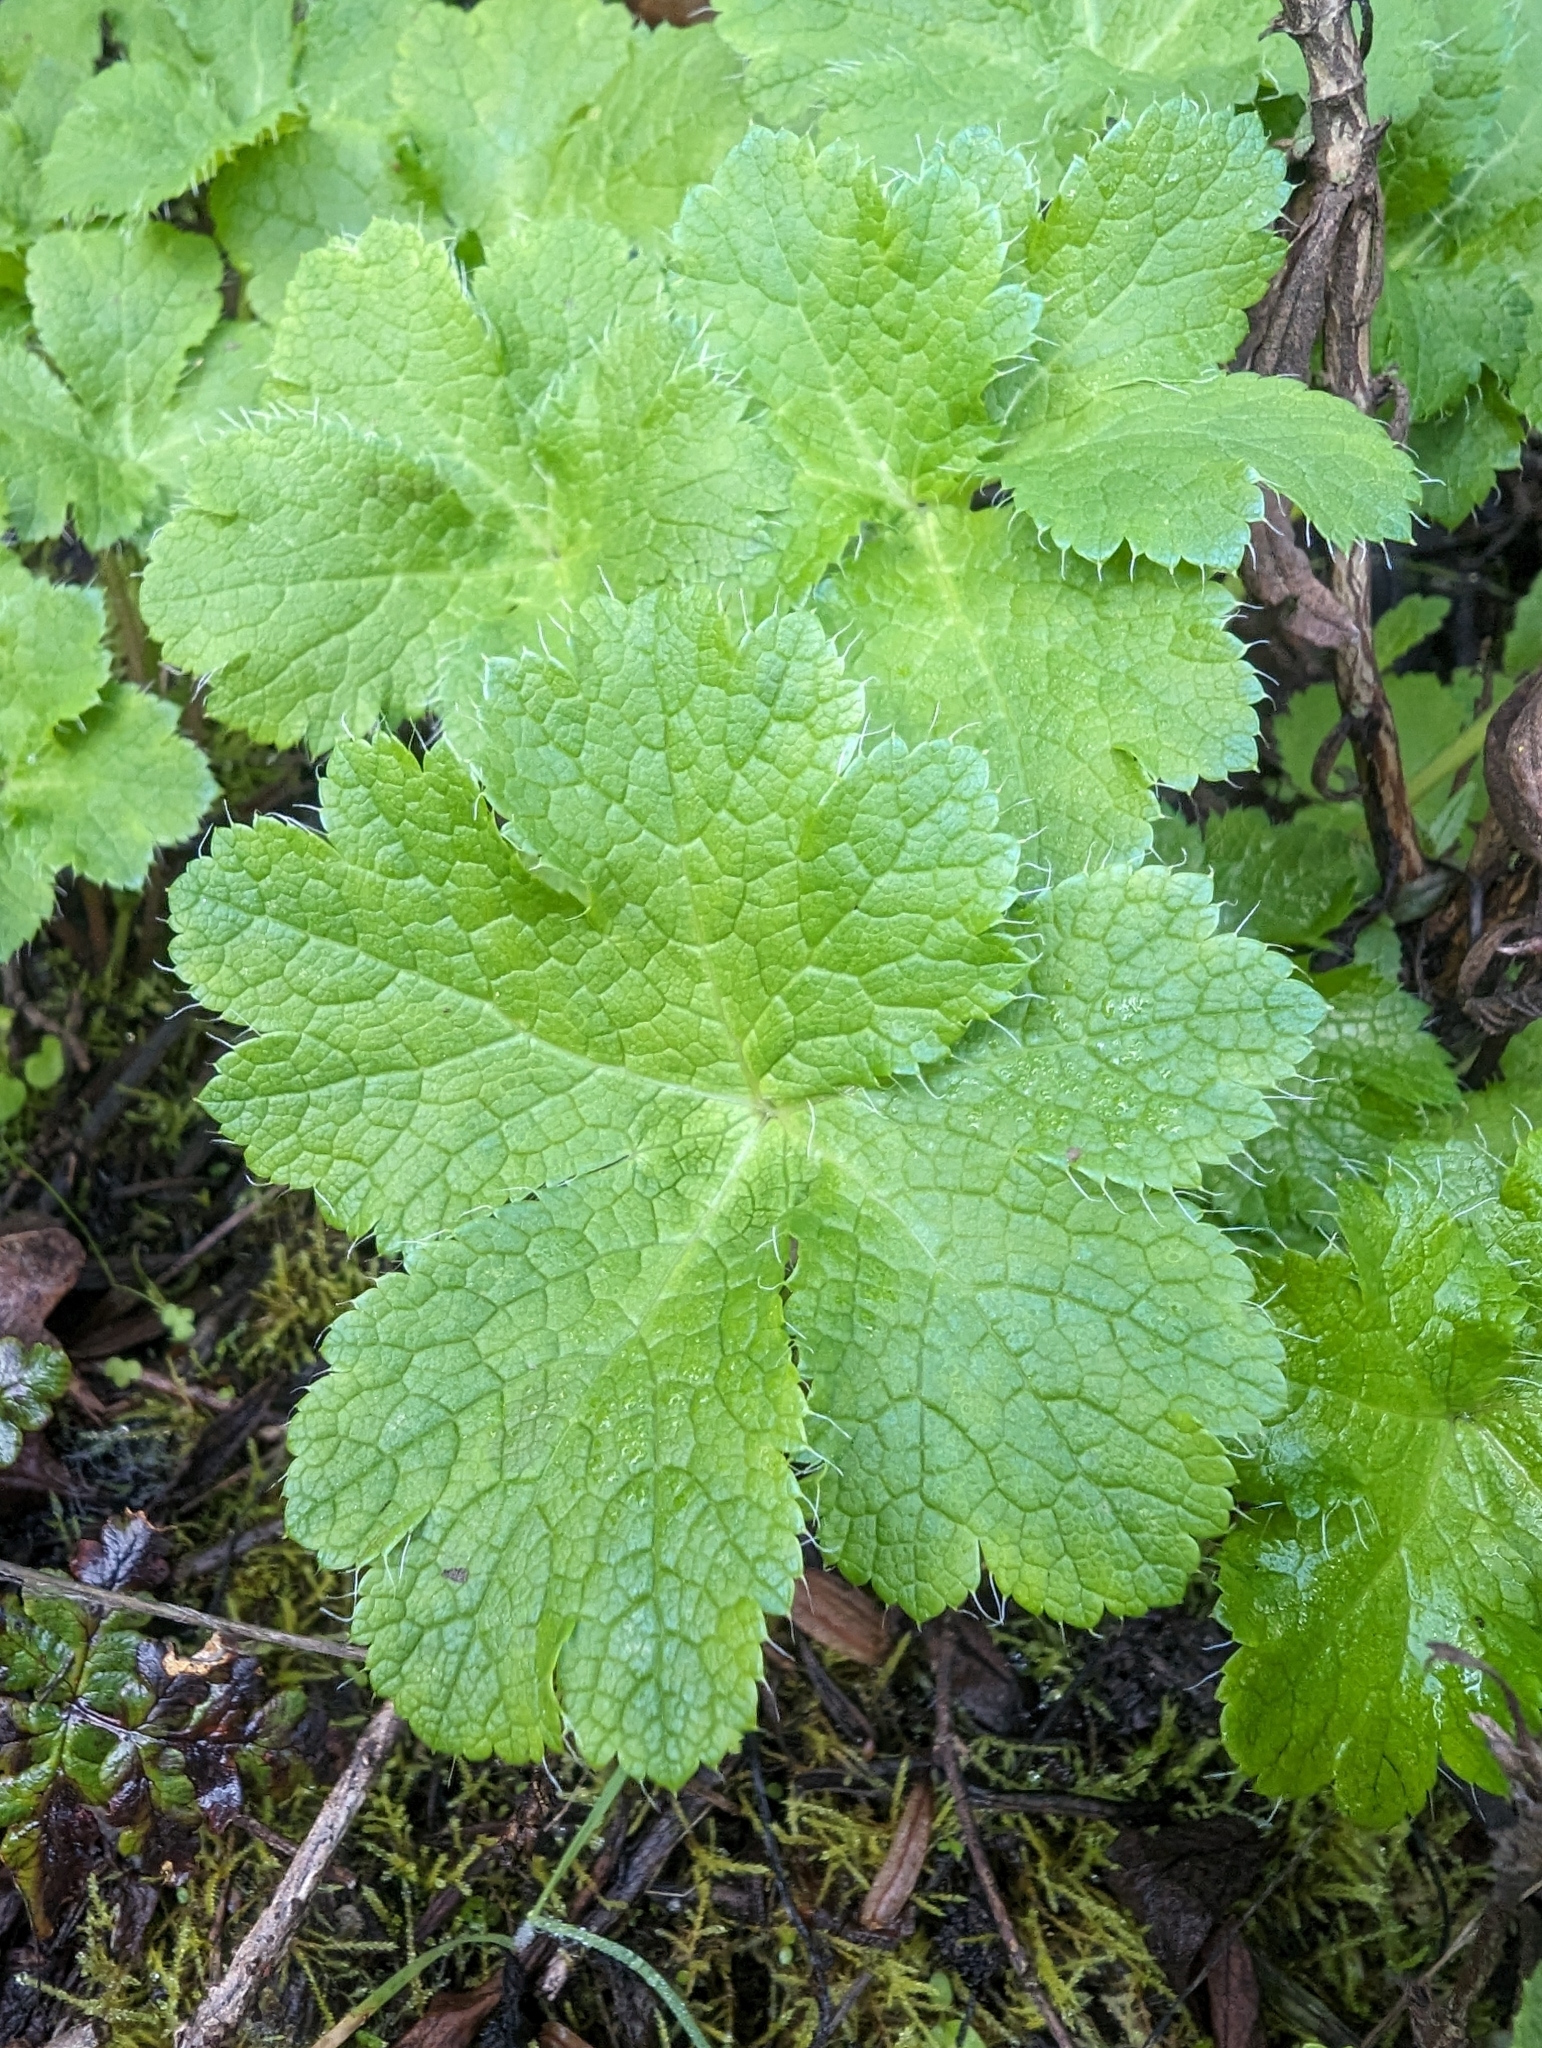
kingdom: Plantae
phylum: Tracheophyta
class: Magnoliopsida
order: Apiales
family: Apiaceae
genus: Sanicula
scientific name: Sanicula crassicaulis
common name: Western snakeroot
